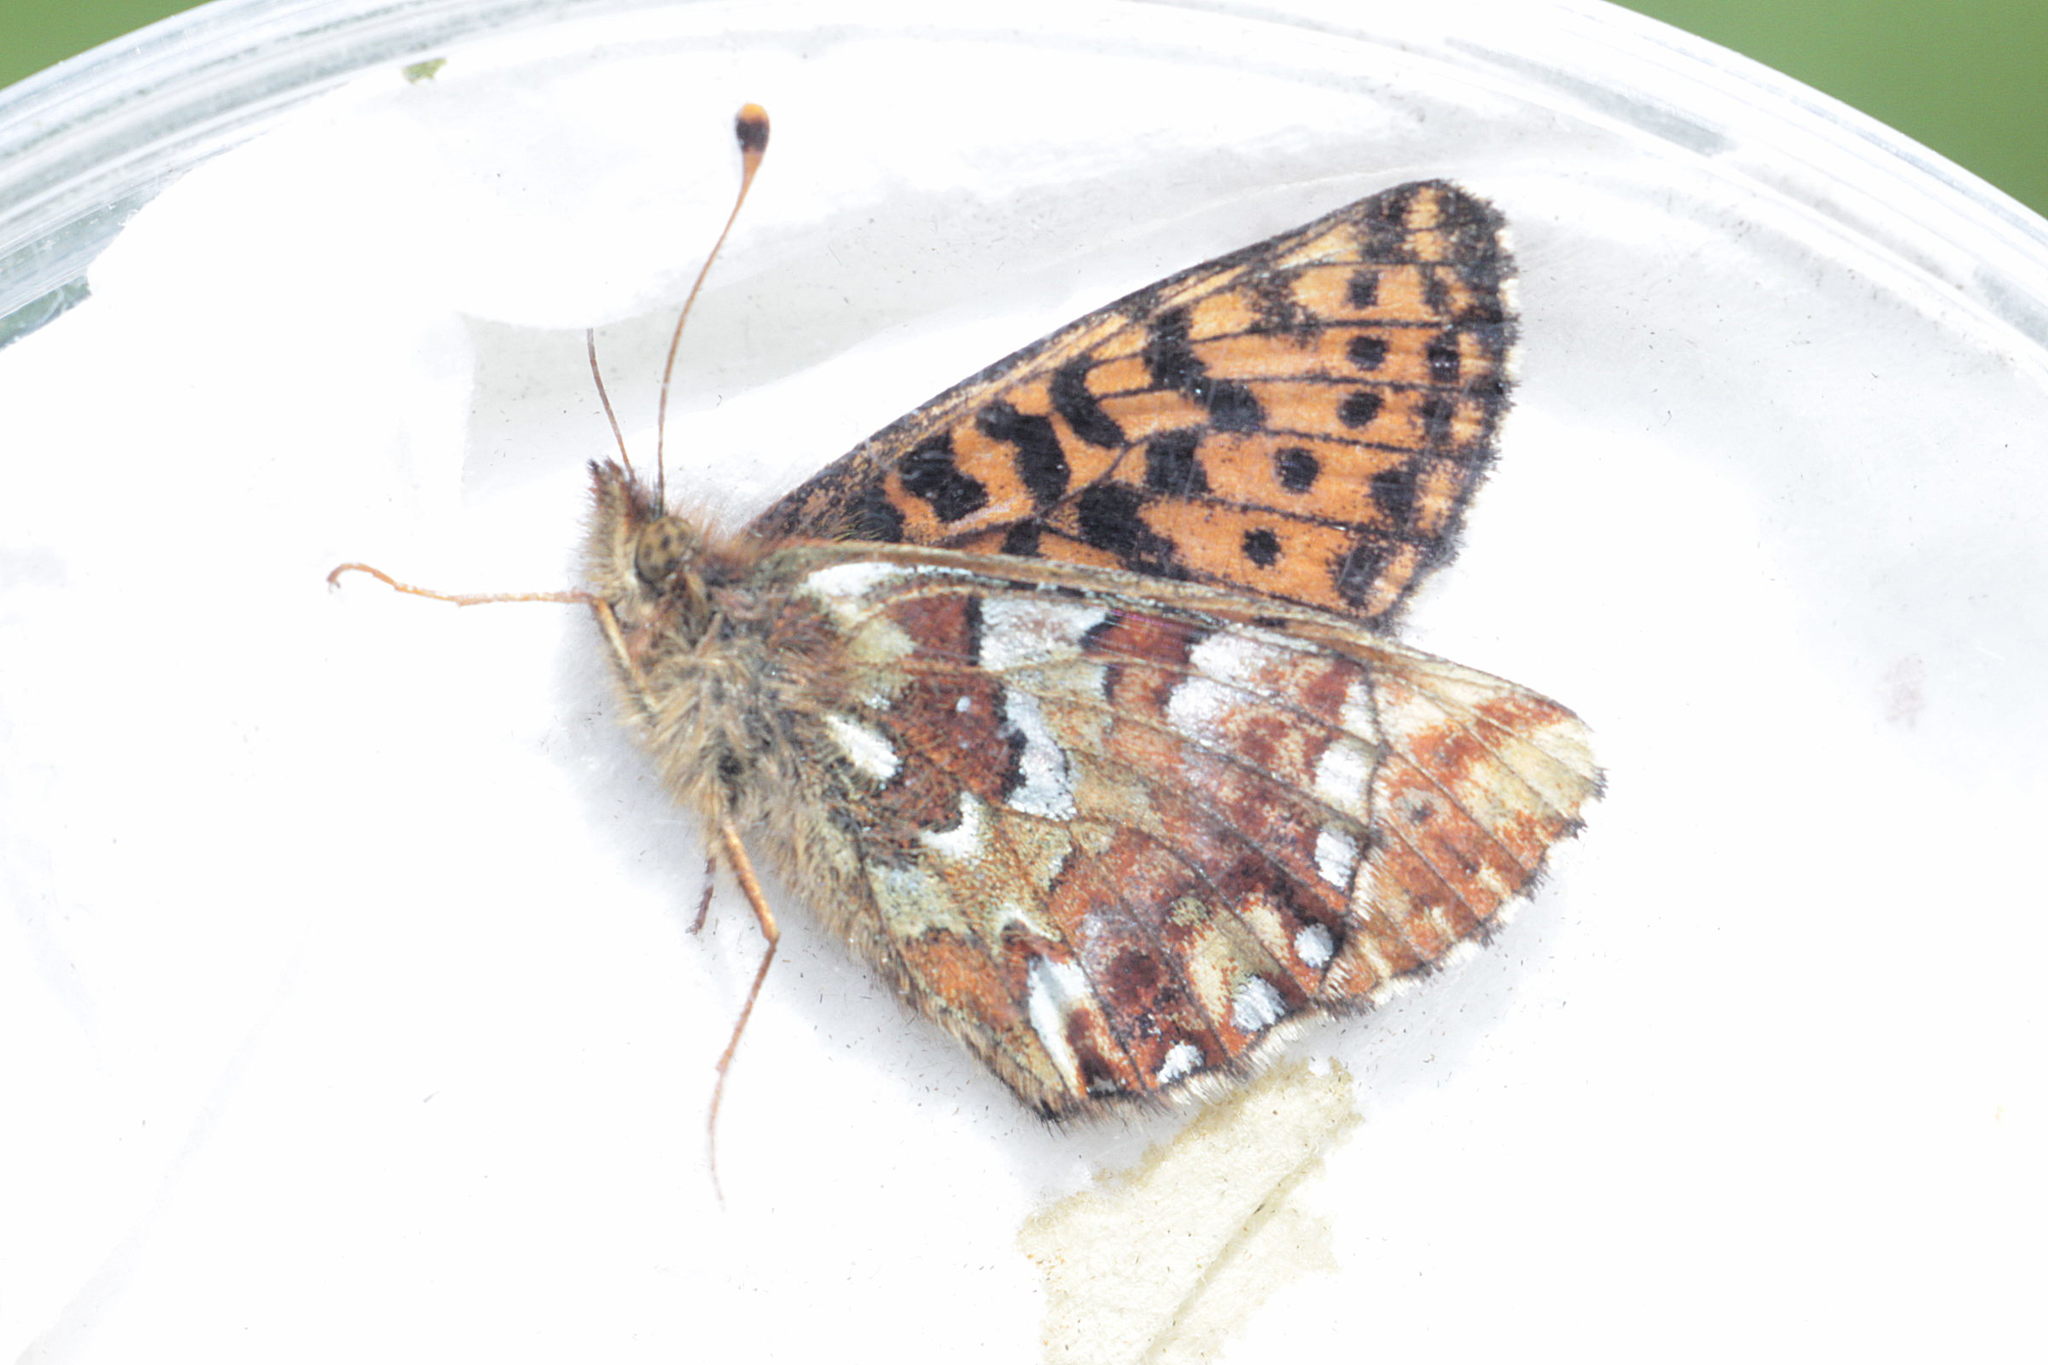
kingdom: Animalia
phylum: Arthropoda
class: Insecta
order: Lepidoptera
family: Nymphalidae
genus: Boloria
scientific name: Boloria aquilonaris
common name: Cranberry fritillary
